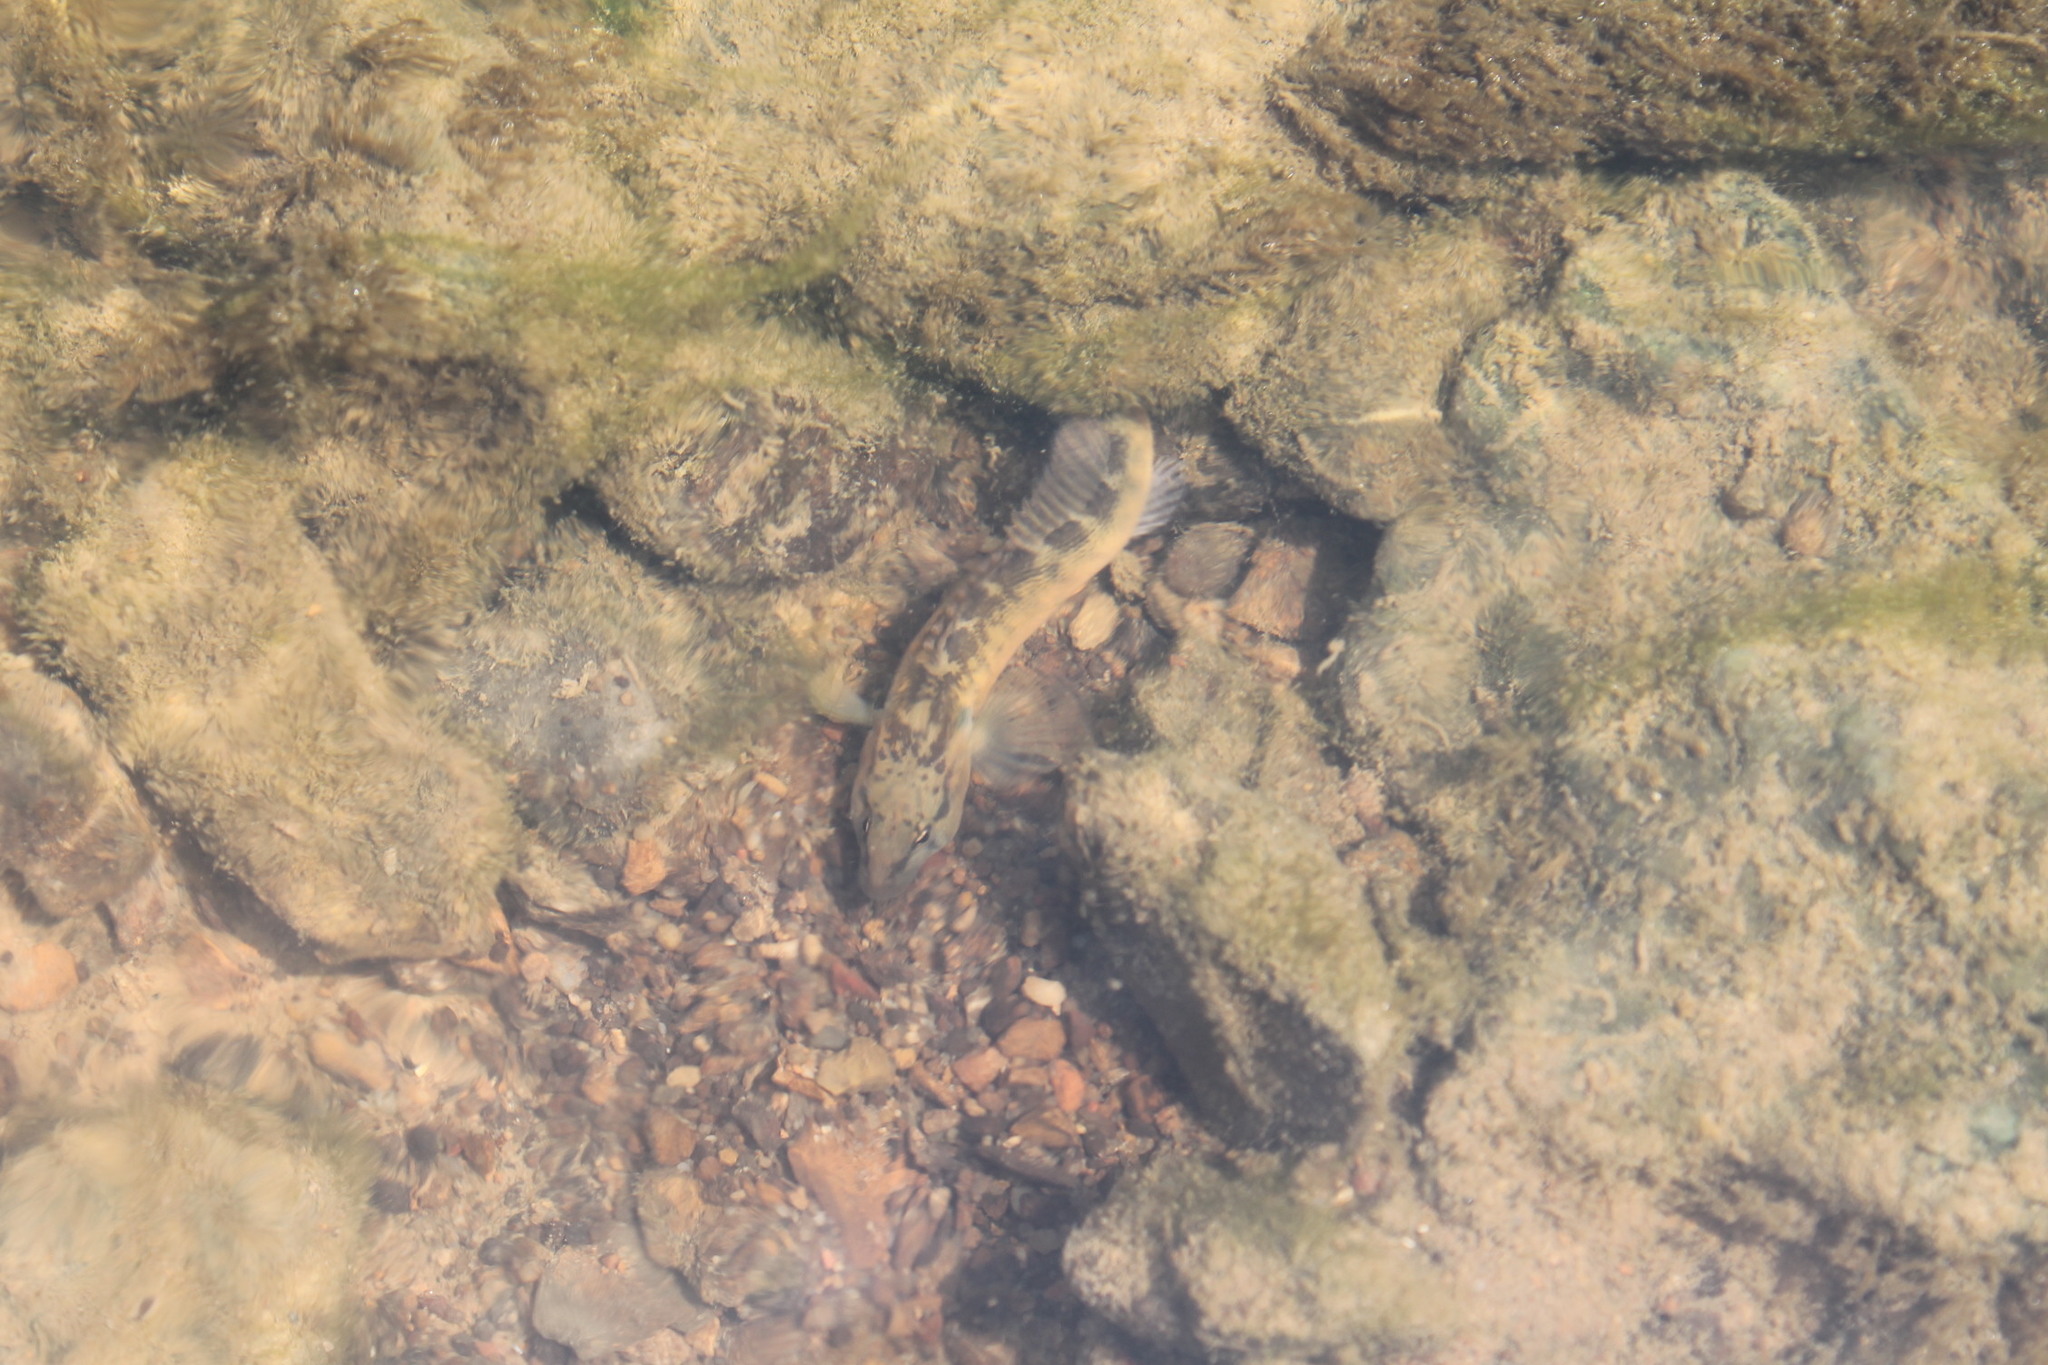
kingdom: Animalia
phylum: Chordata
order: Perciformes
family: Percidae
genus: Etheostoma
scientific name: Etheostoma flabellare
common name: Fantail darter
